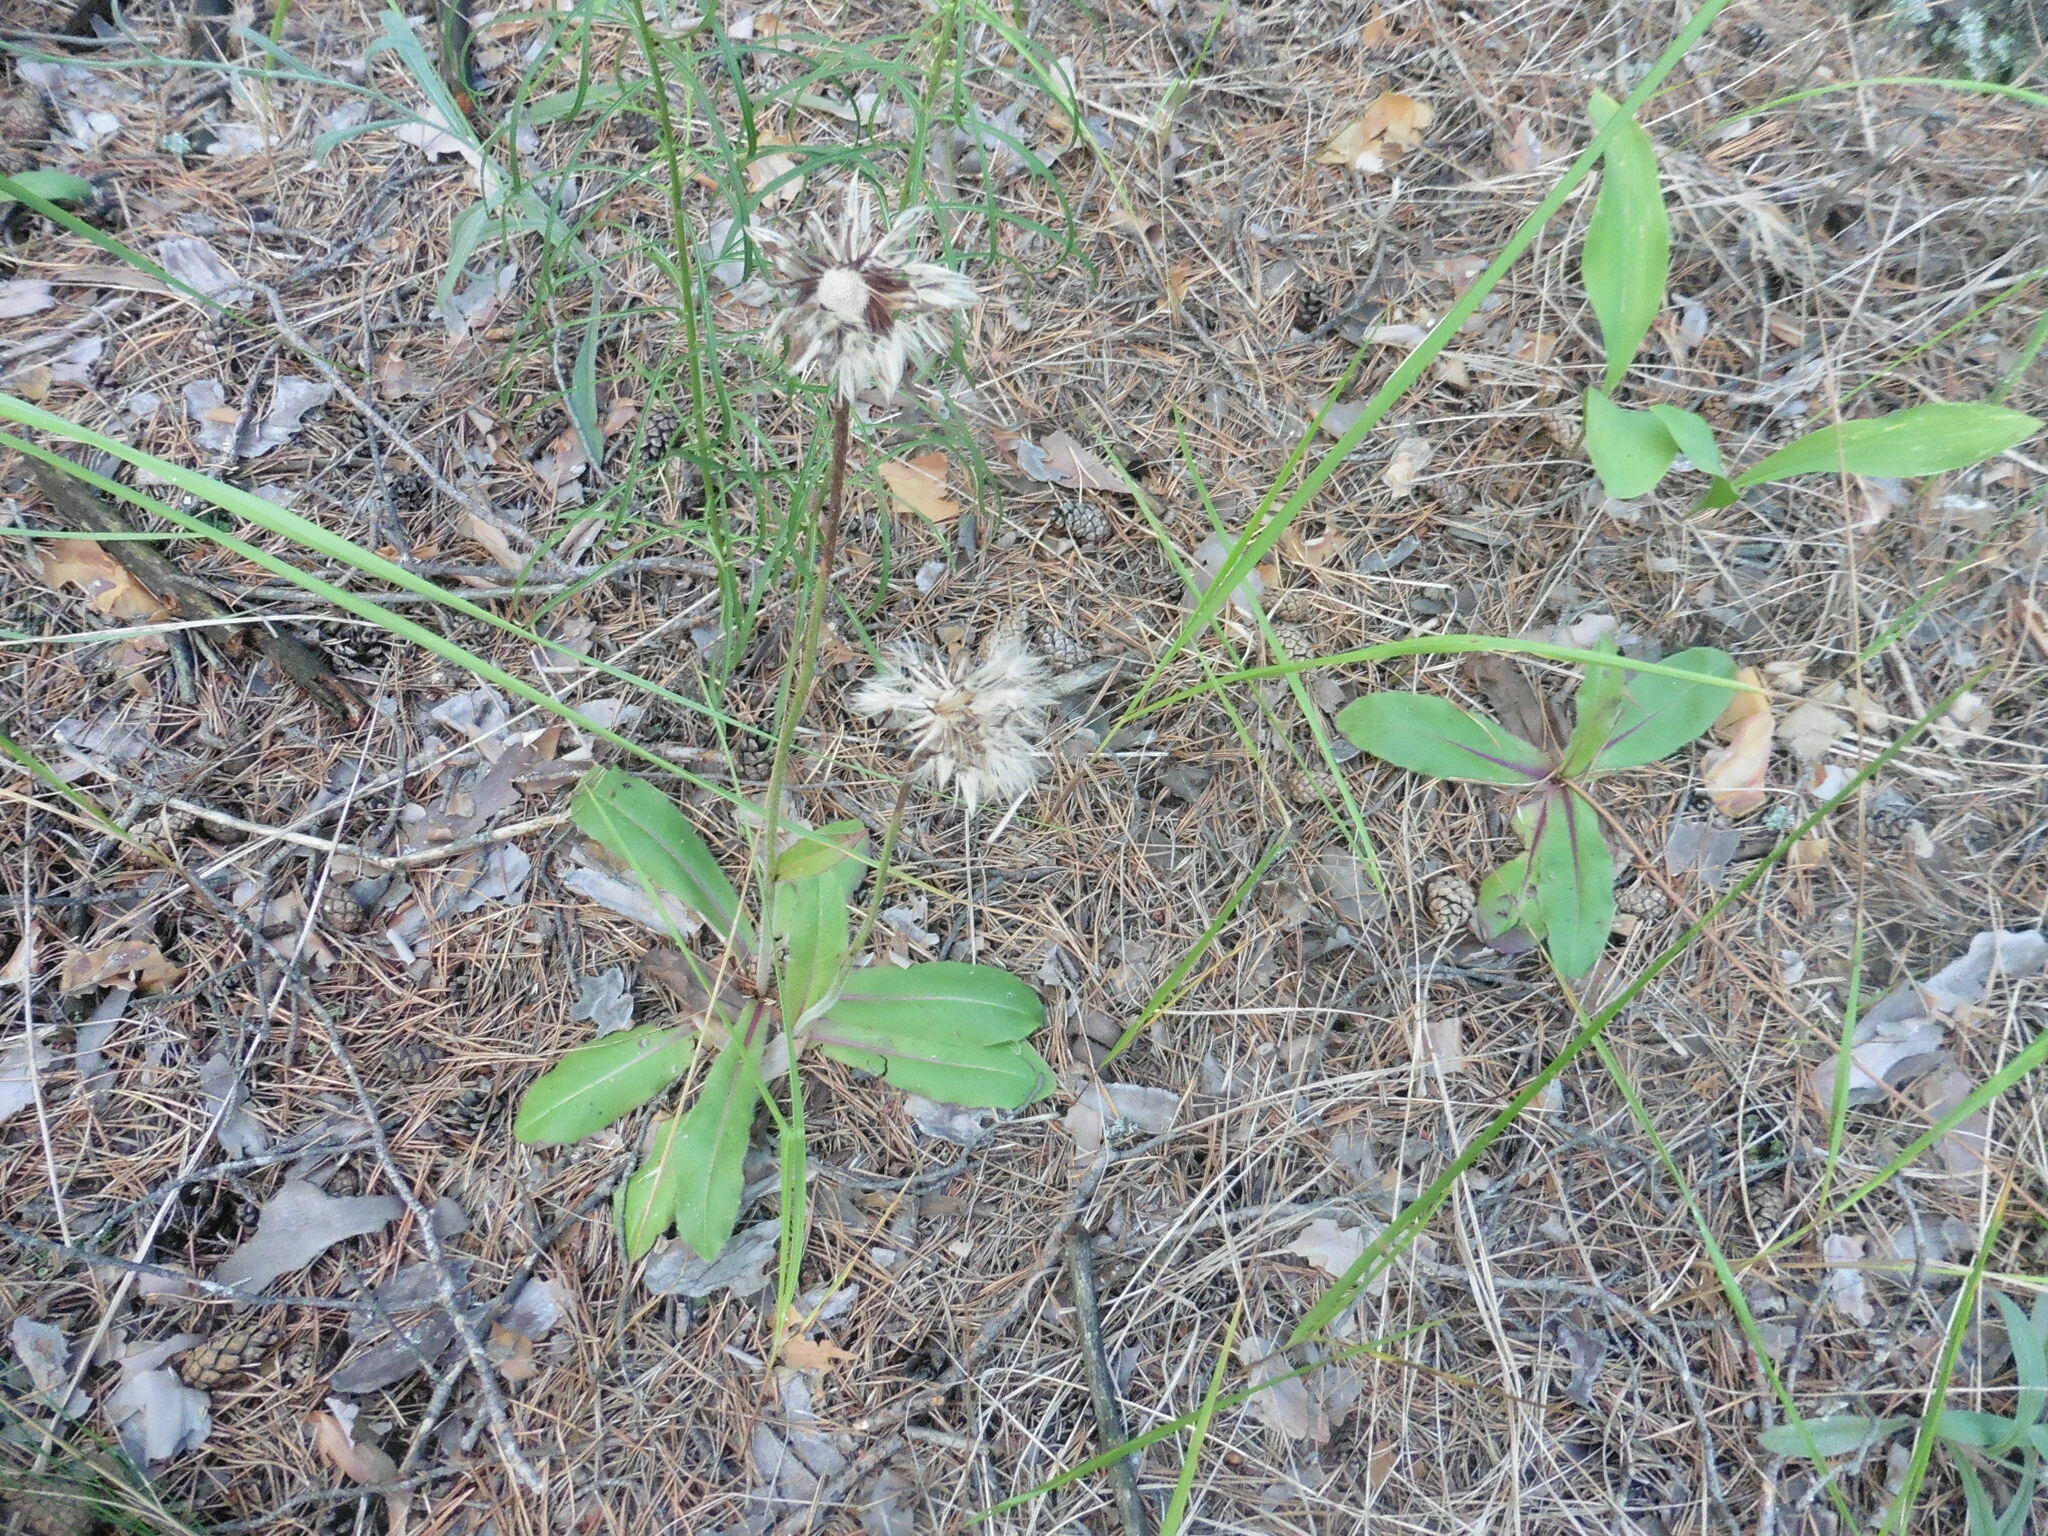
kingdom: Plantae
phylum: Tracheophyta
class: Magnoliopsida
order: Asterales
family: Asteraceae
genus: Trommsdorffia
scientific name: Trommsdorffia maculata
